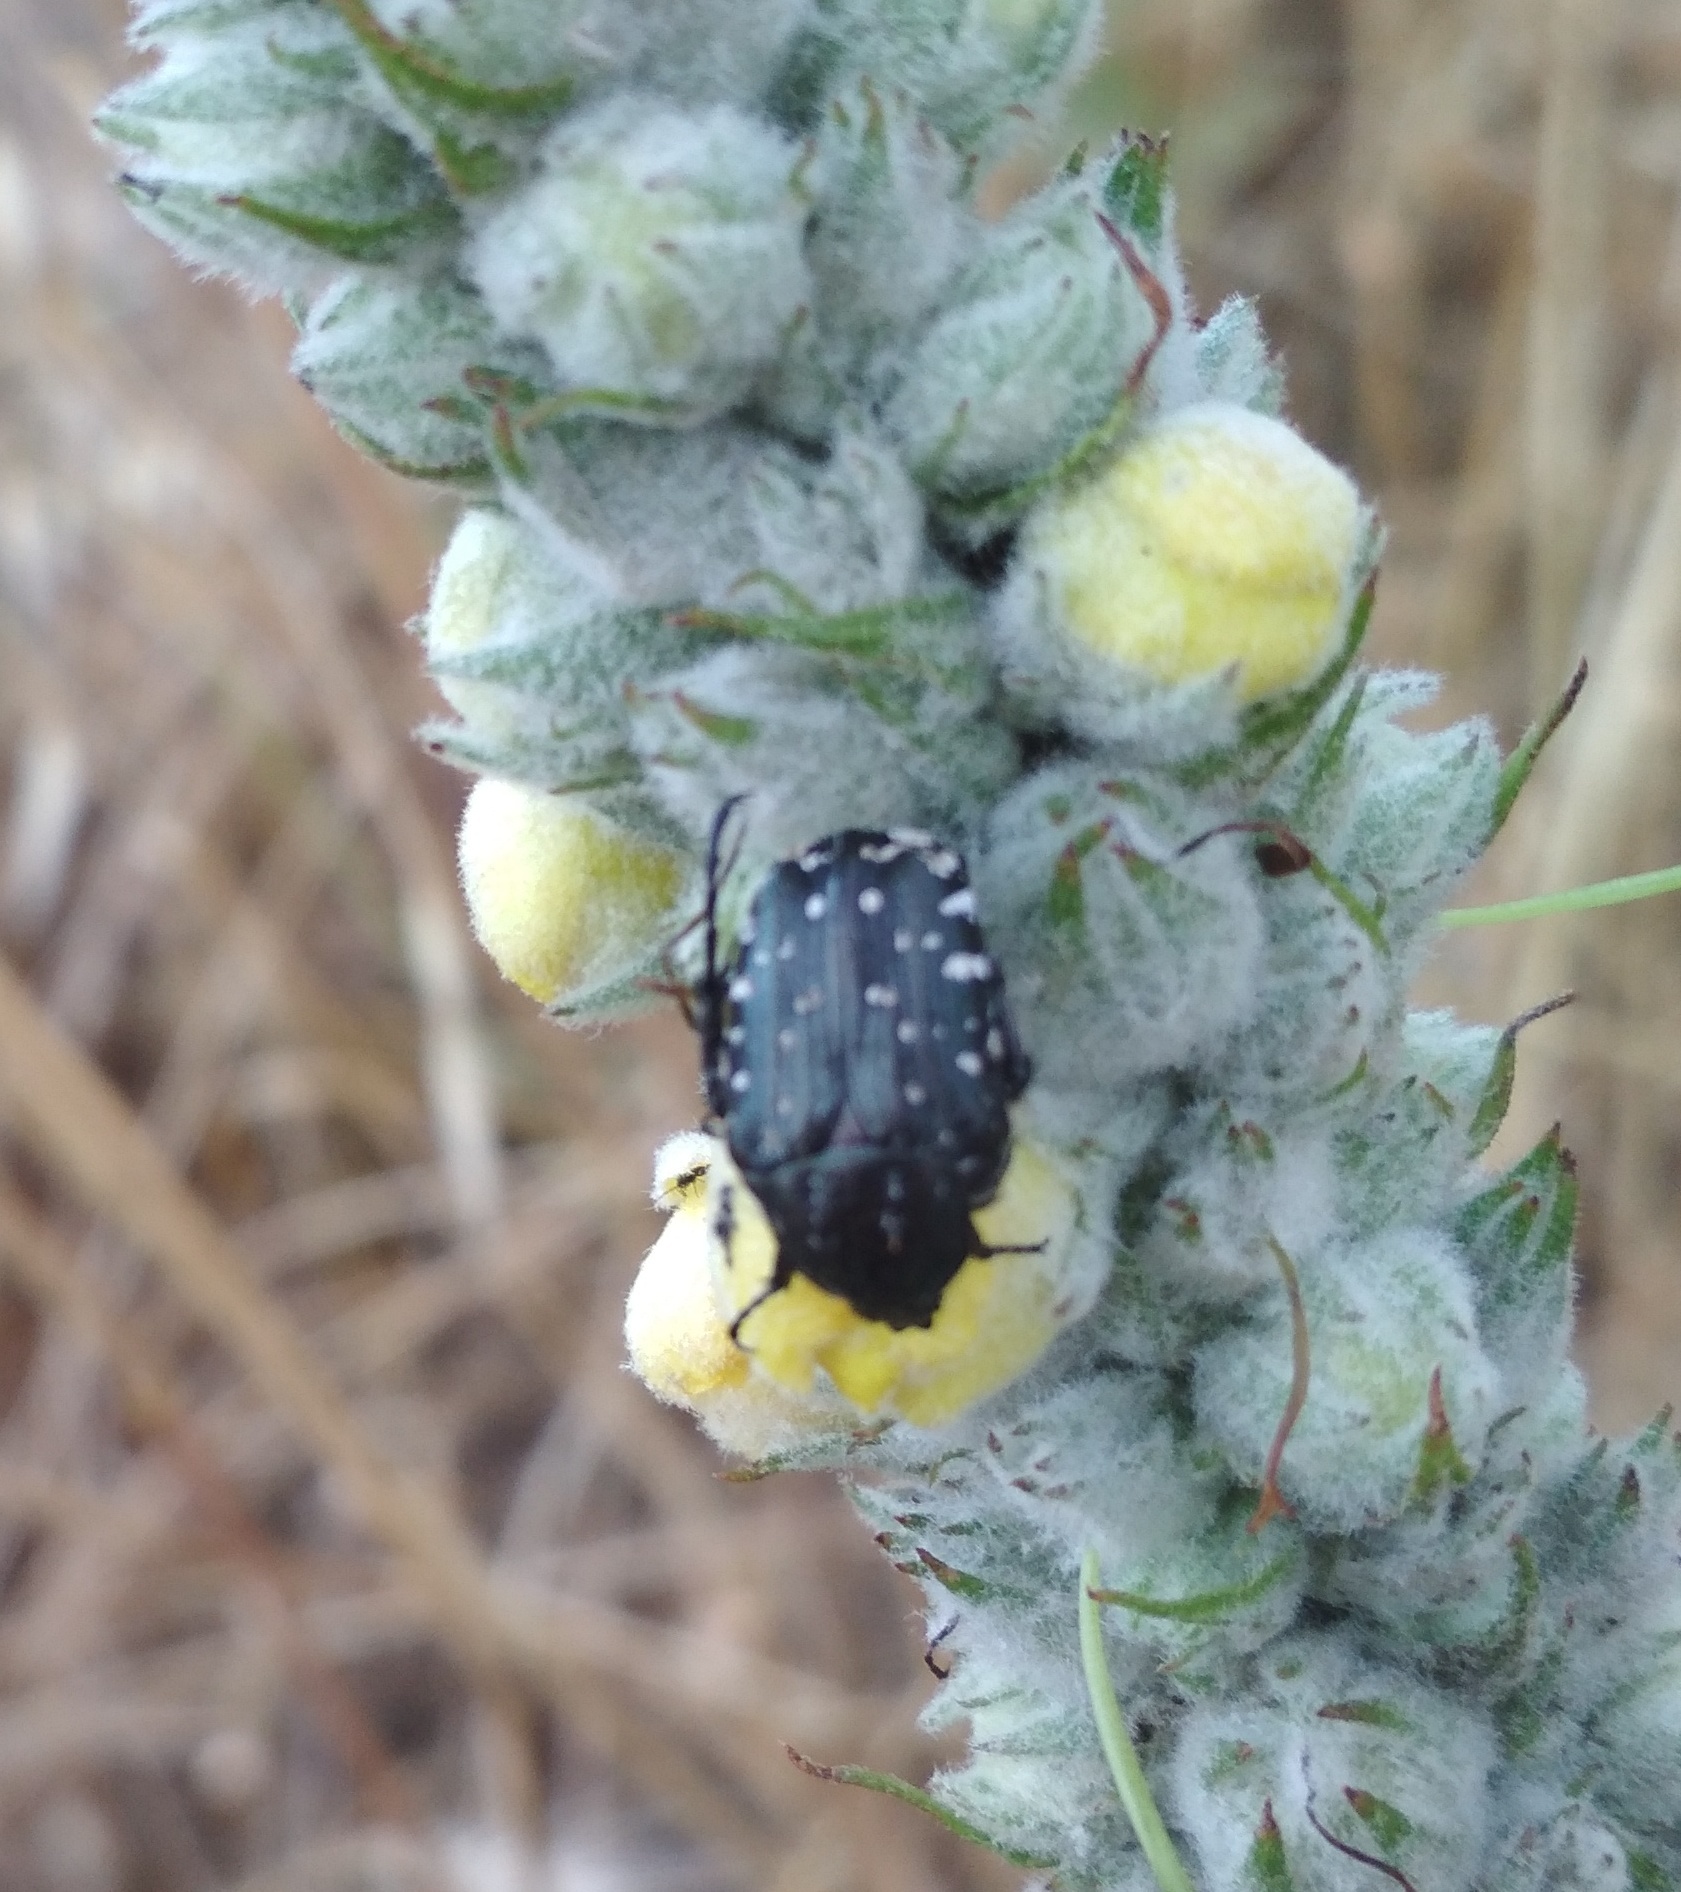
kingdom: Animalia
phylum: Arthropoda
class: Insecta
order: Coleoptera
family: Scarabaeidae
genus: Oxythyrea
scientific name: Oxythyrea funesta
